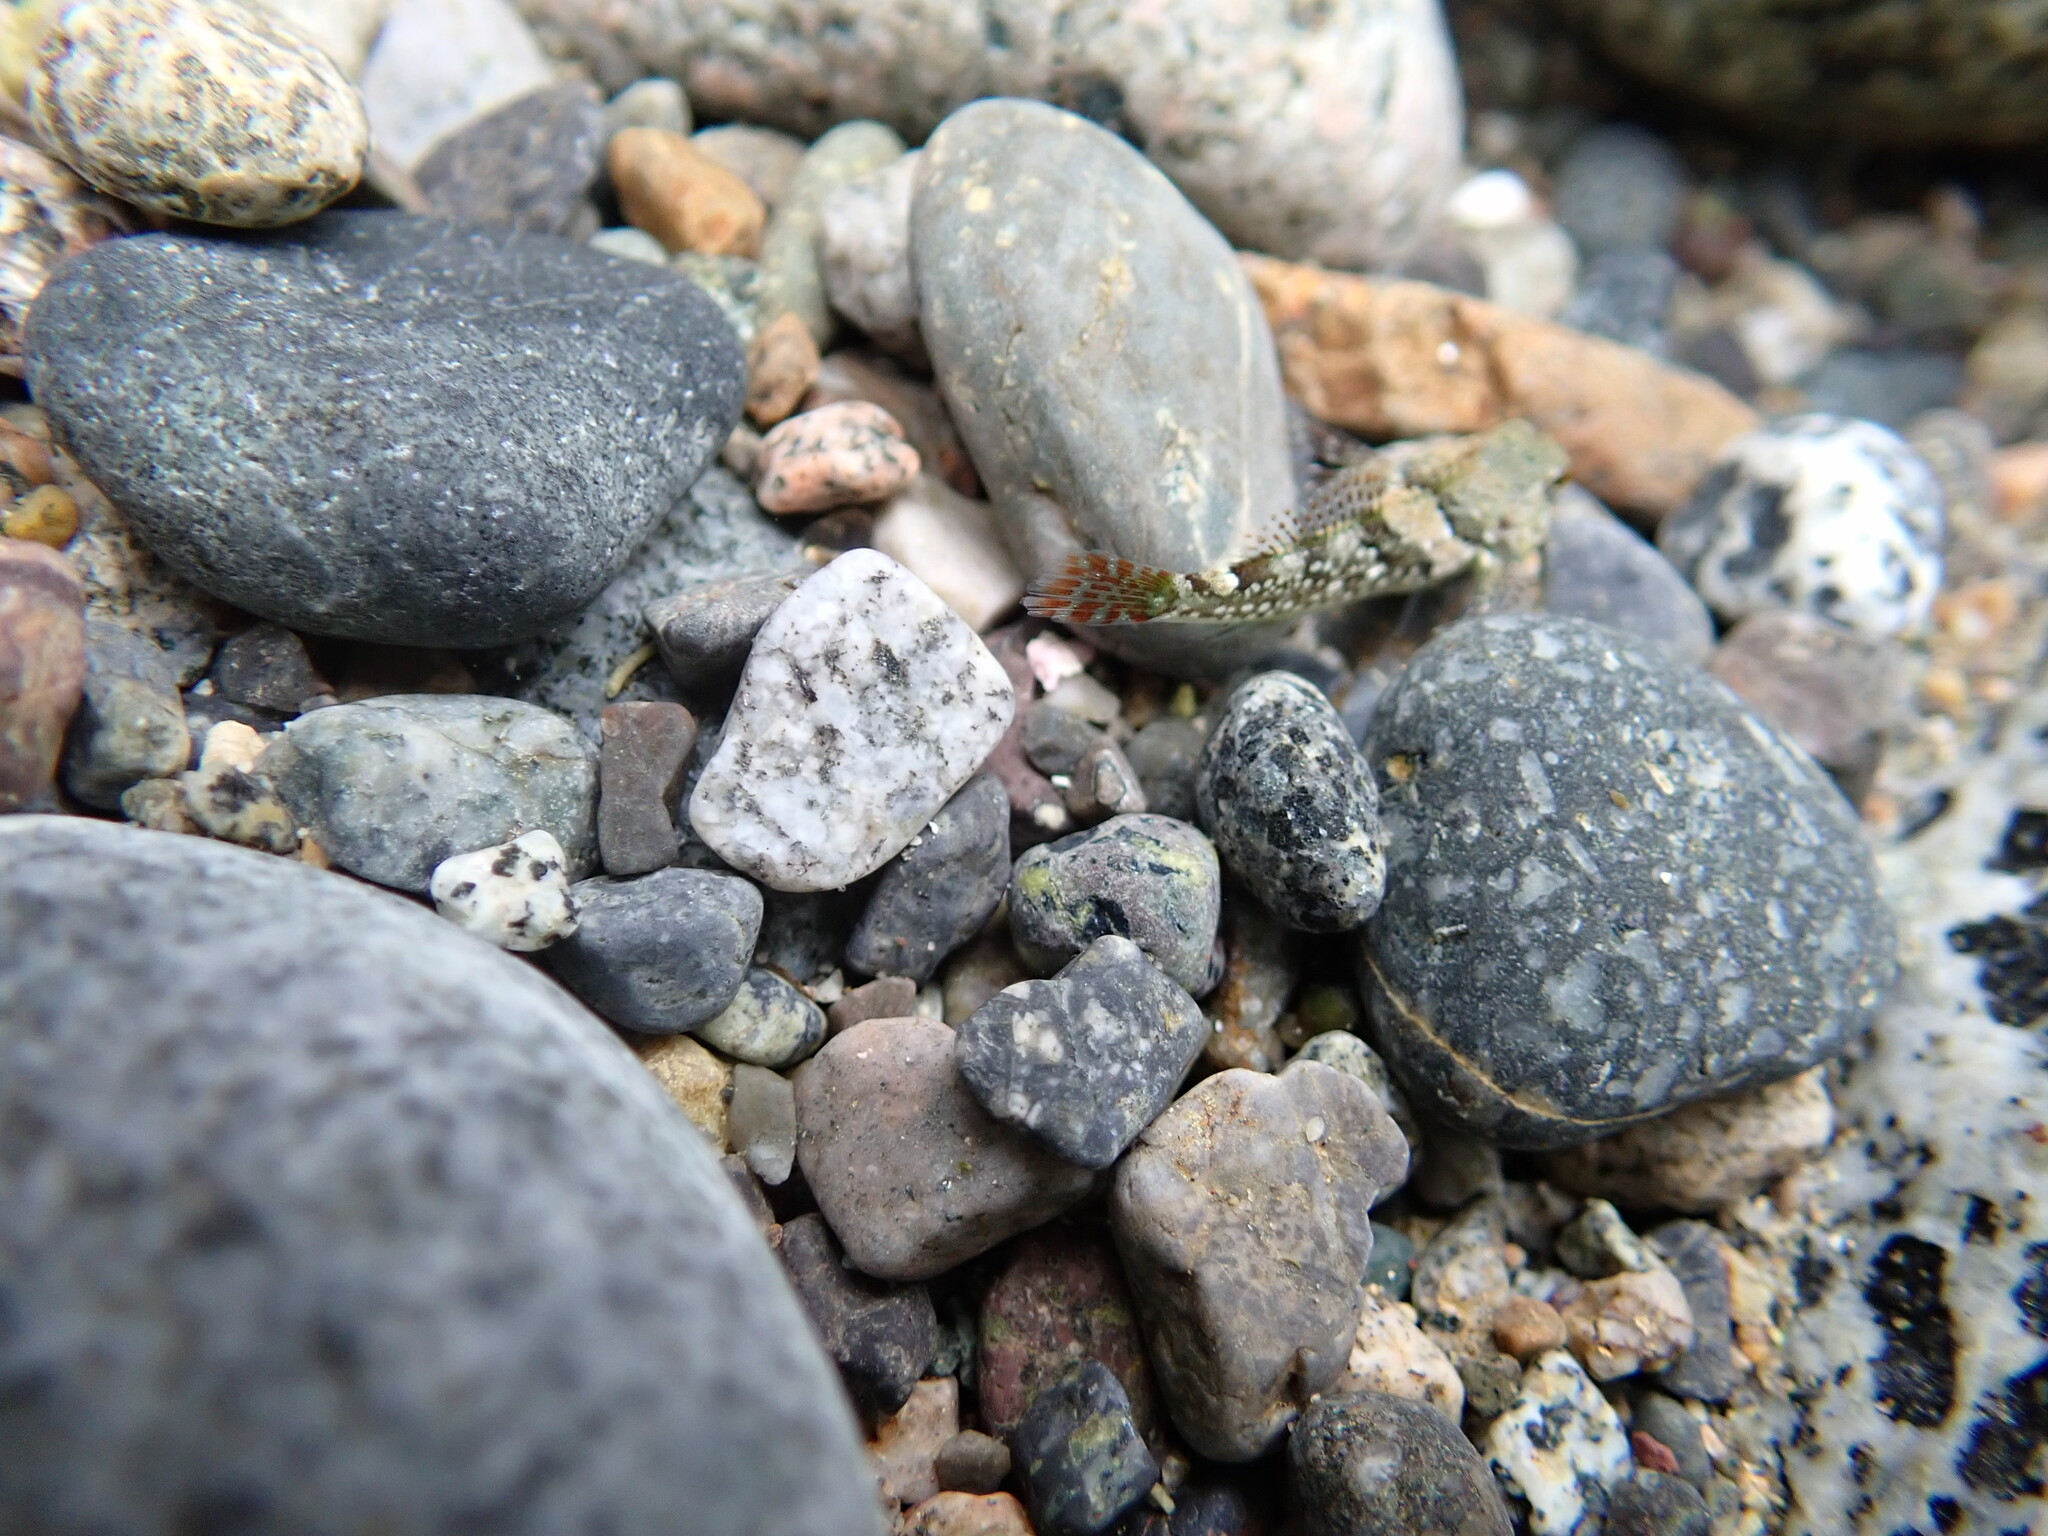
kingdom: Animalia
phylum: Chordata
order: Scorpaeniformes
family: Cottidae
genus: Oligocottus
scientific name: Oligocottus maculosus
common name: Tidepool sculpin
